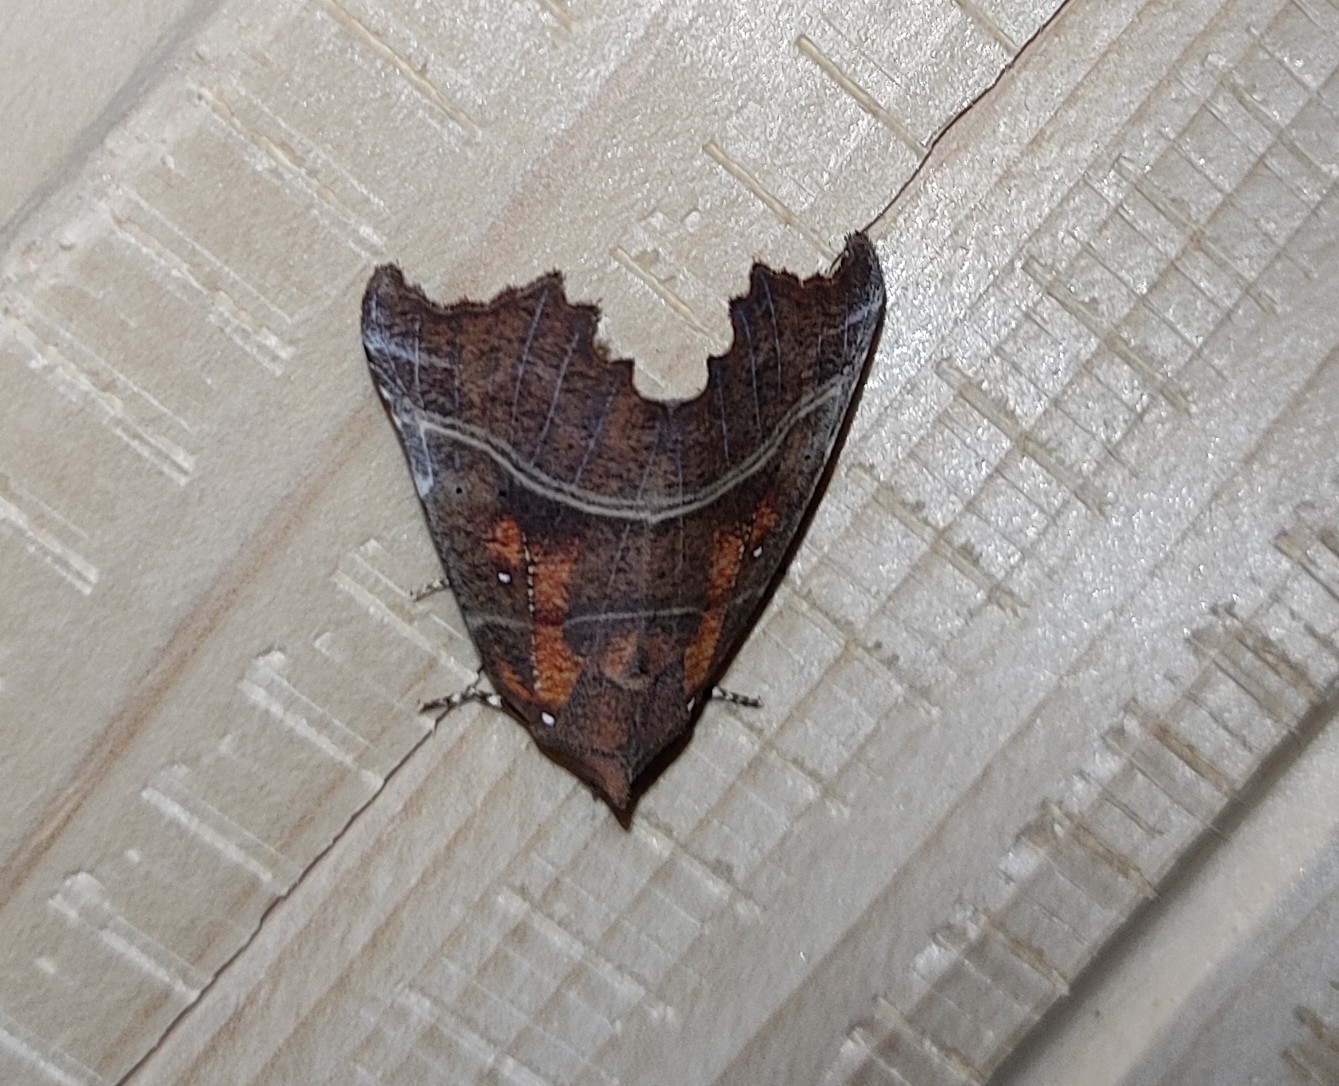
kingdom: Animalia
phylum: Arthropoda
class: Insecta
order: Lepidoptera
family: Erebidae
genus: Scoliopteryx
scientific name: Scoliopteryx libatrix
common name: Herald
